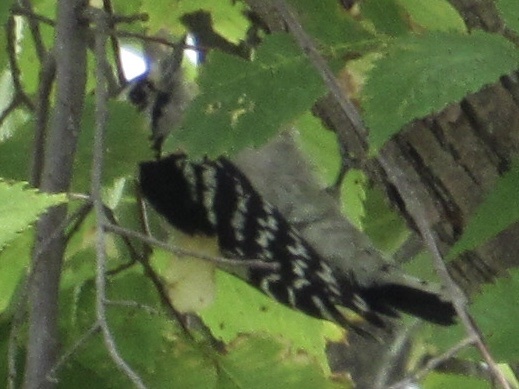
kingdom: Animalia
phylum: Chordata
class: Aves
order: Piciformes
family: Picidae
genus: Dryobates
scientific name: Dryobates pubescens
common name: Downy woodpecker
